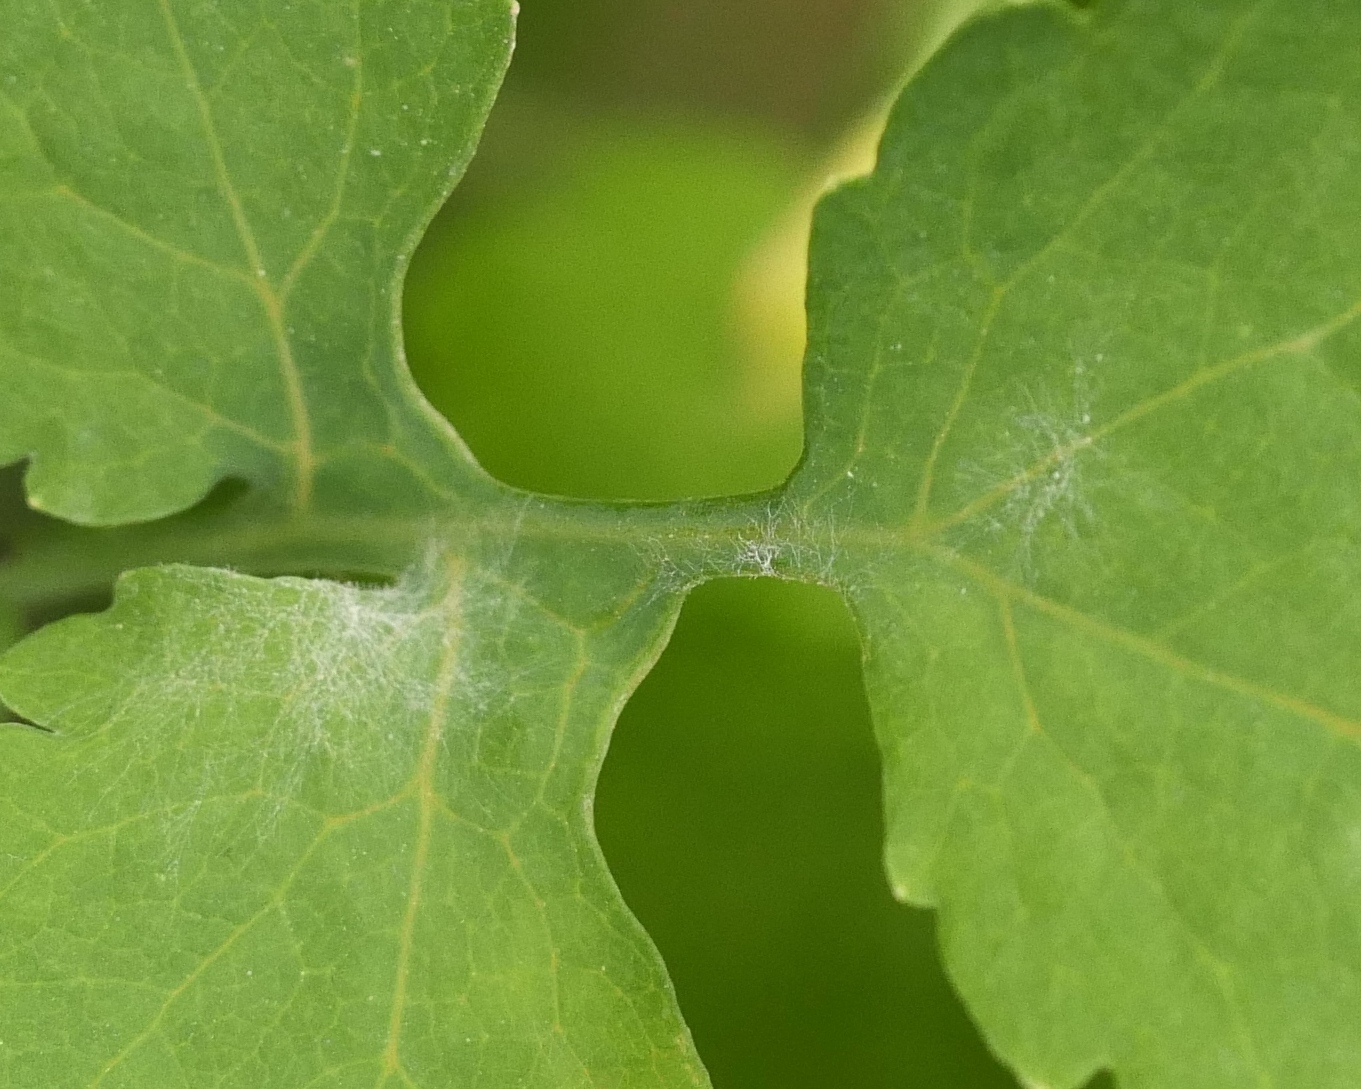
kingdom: Fungi
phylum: Ascomycota
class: Leotiomycetes
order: Helotiales
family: Erysiphaceae
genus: Erysiphe
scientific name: Erysiphe macleayae
